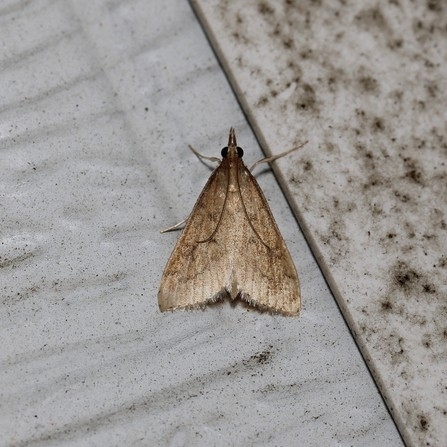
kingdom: Animalia
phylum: Arthropoda
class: Insecta
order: Lepidoptera
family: Crambidae
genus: Udea
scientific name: Udea rubigalis
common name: Celery leaftier moth
